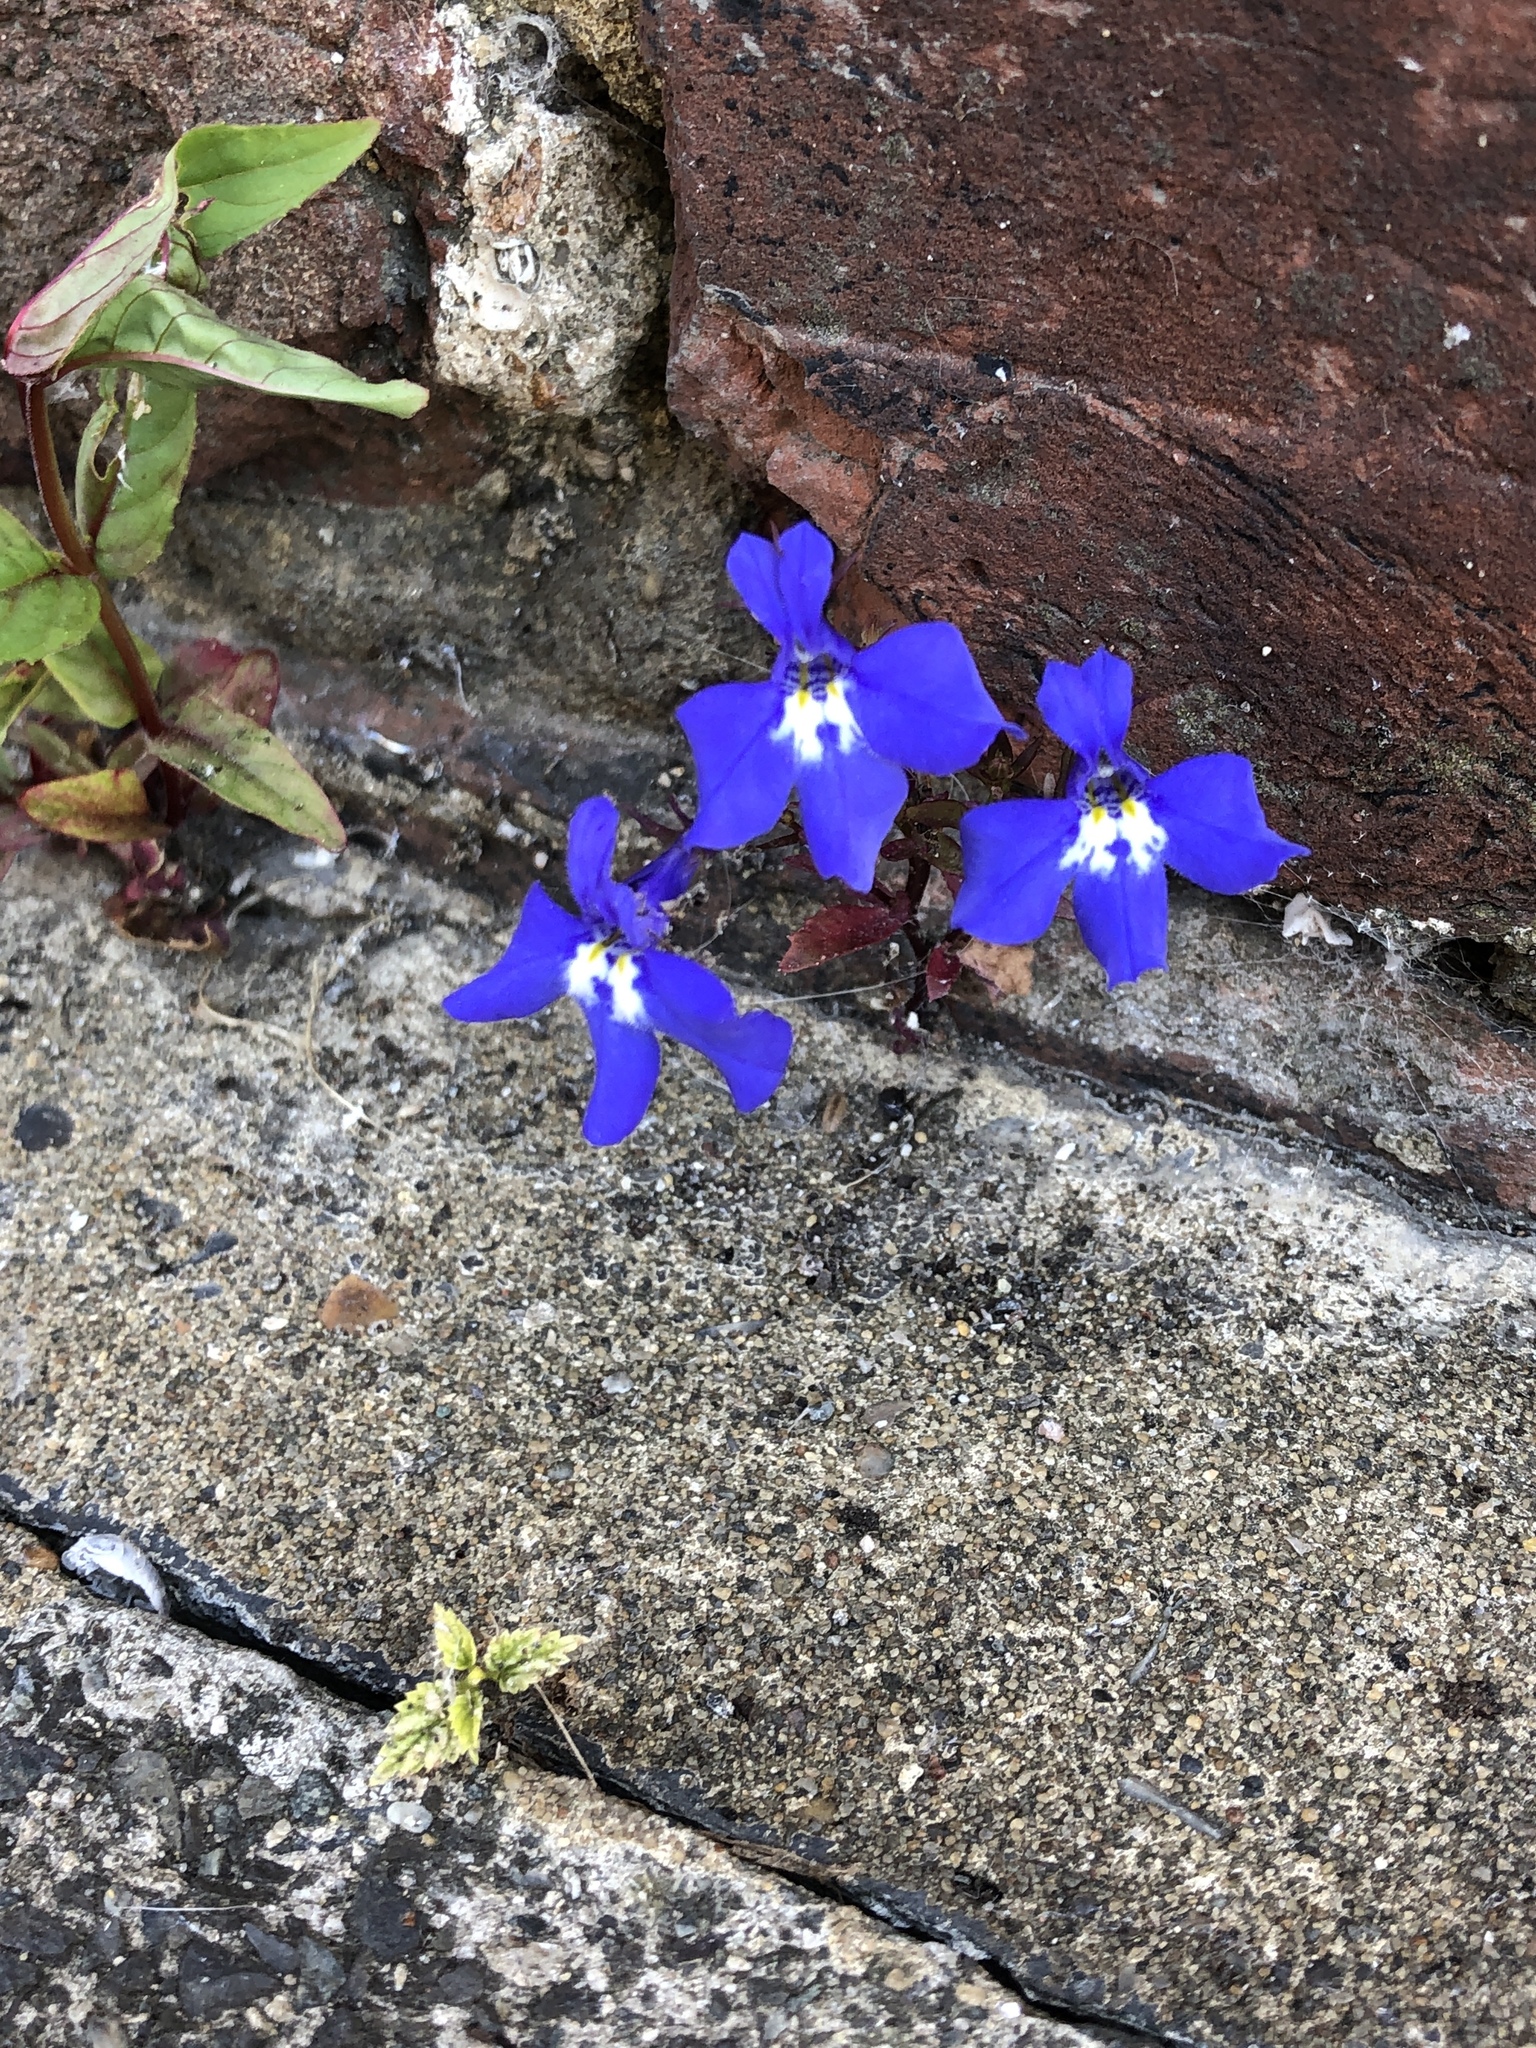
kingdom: Plantae
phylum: Tracheophyta
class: Magnoliopsida
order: Asterales
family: Campanulaceae
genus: Lobelia
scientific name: Lobelia erinus
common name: Edging lobelia
